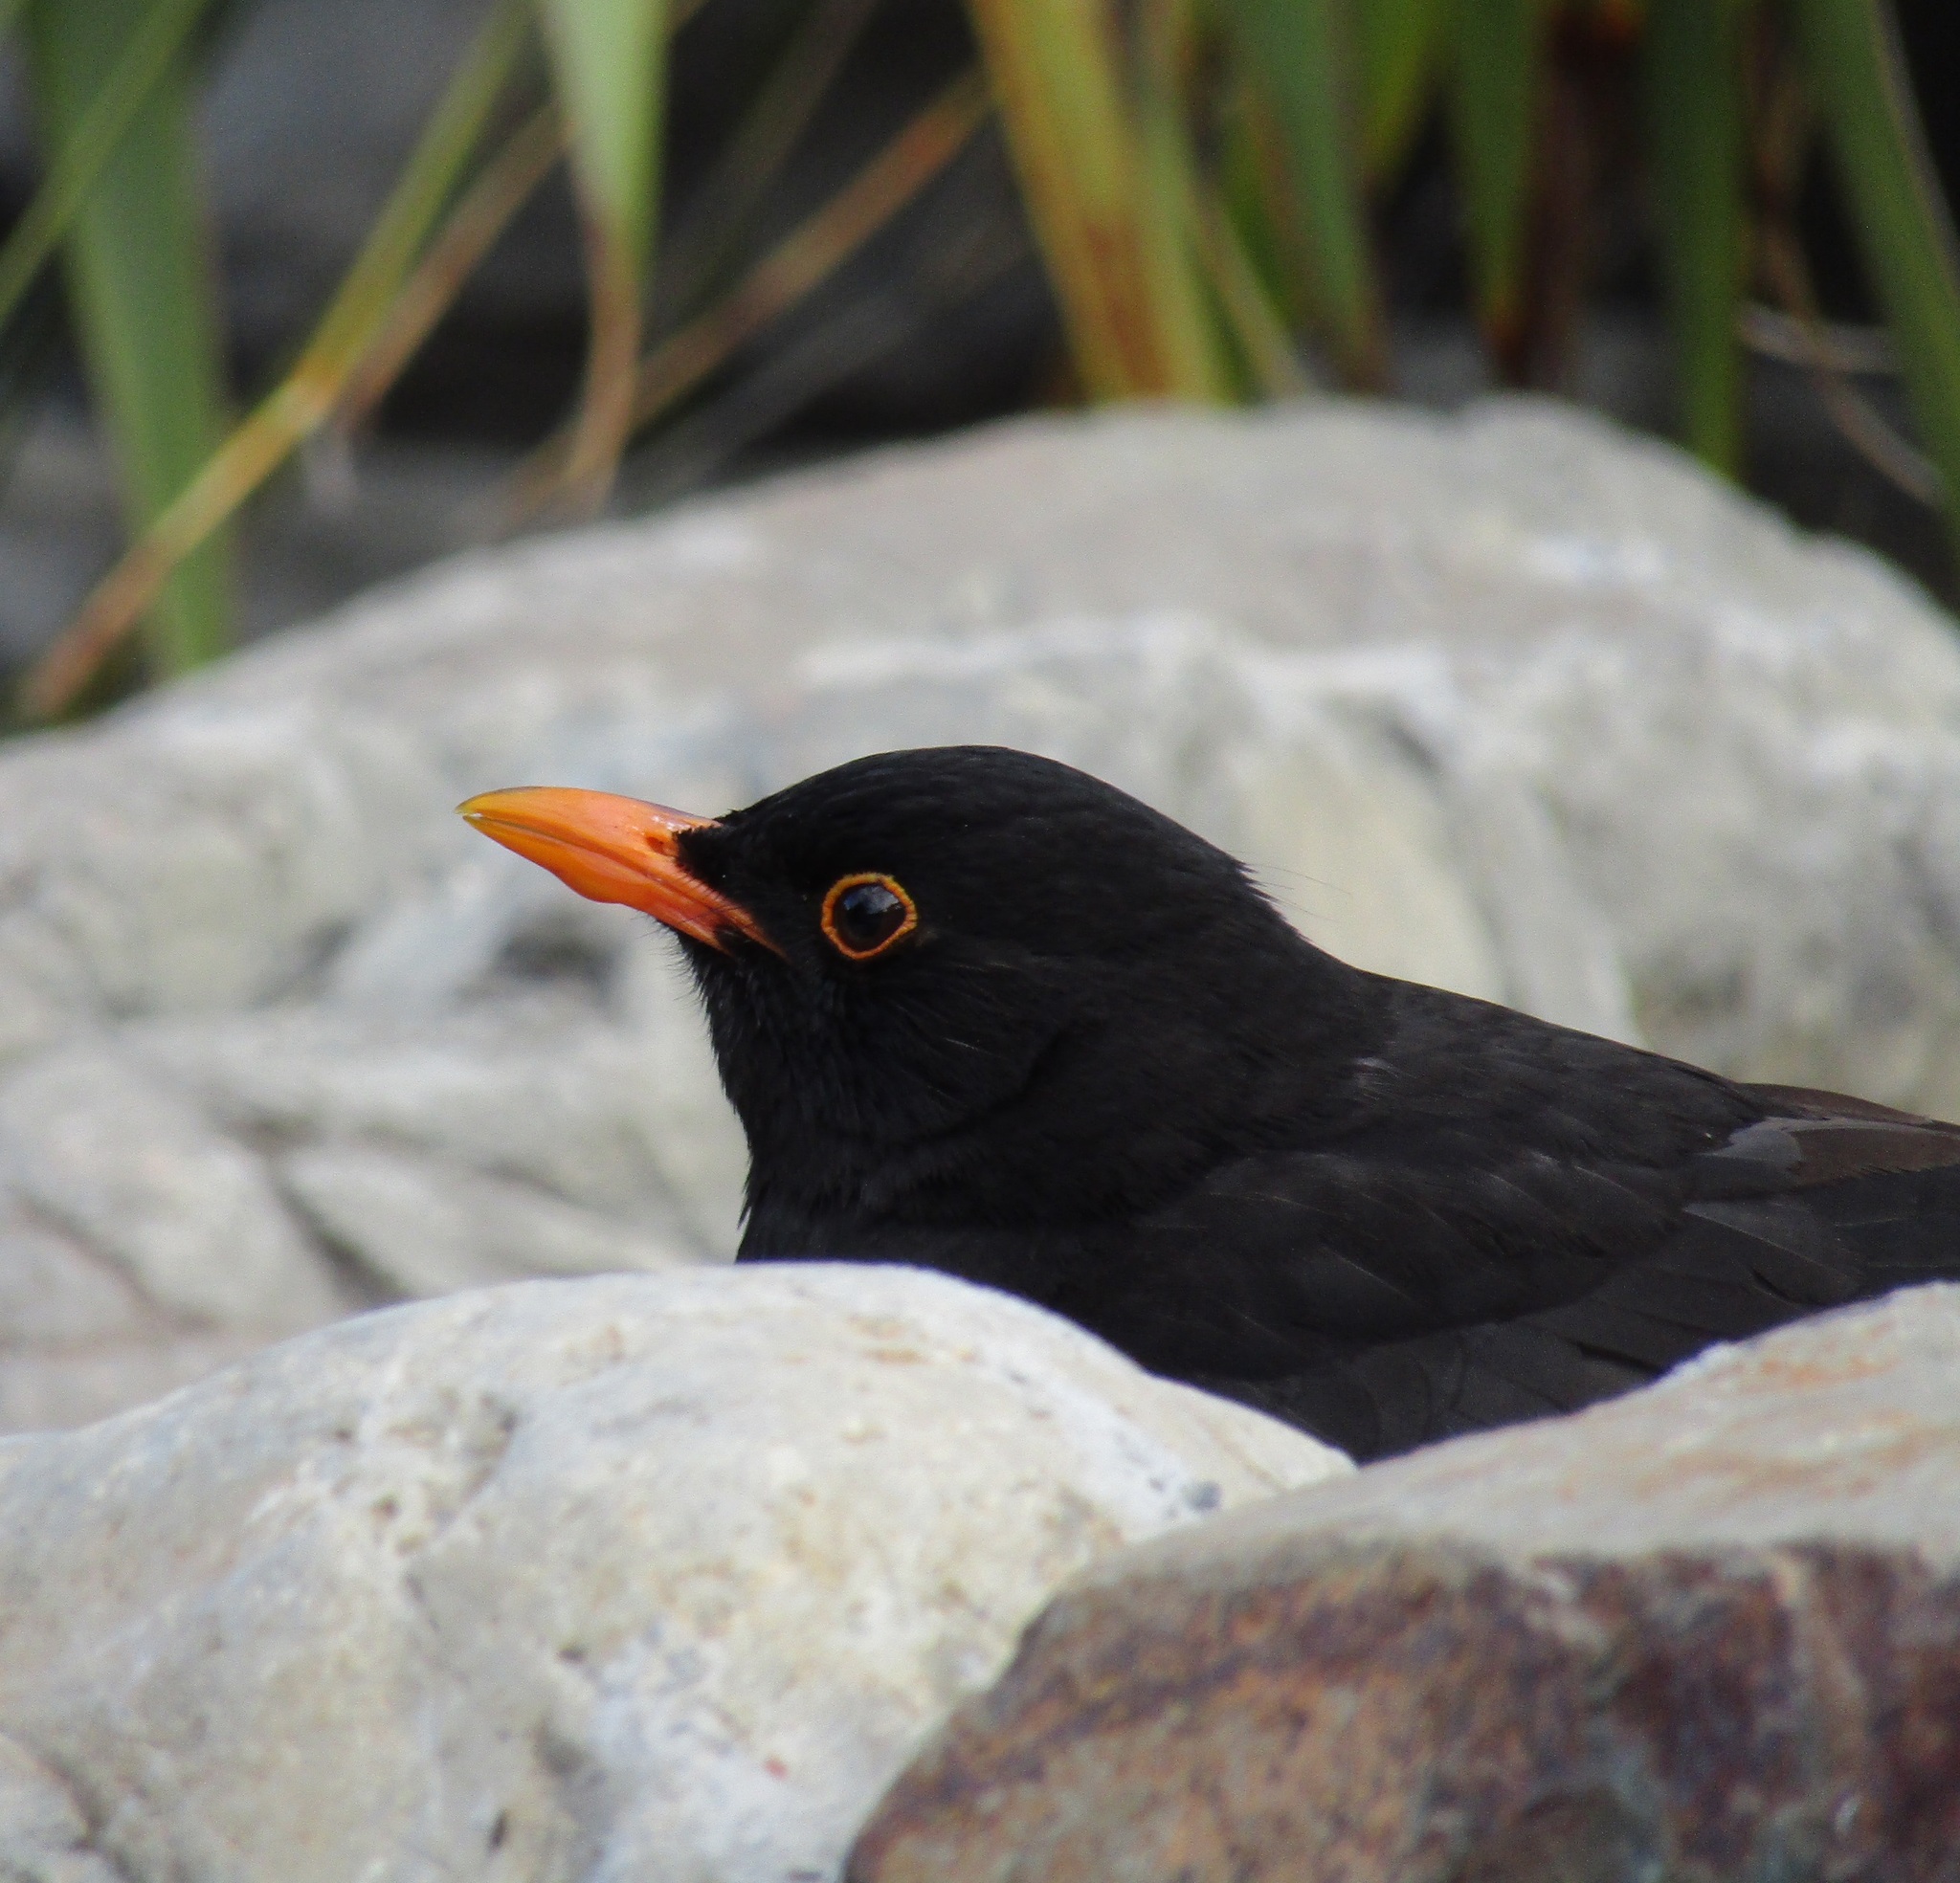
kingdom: Animalia
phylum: Chordata
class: Aves
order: Passeriformes
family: Turdidae
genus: Turdus
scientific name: Turdus merula
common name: Common blackbird
